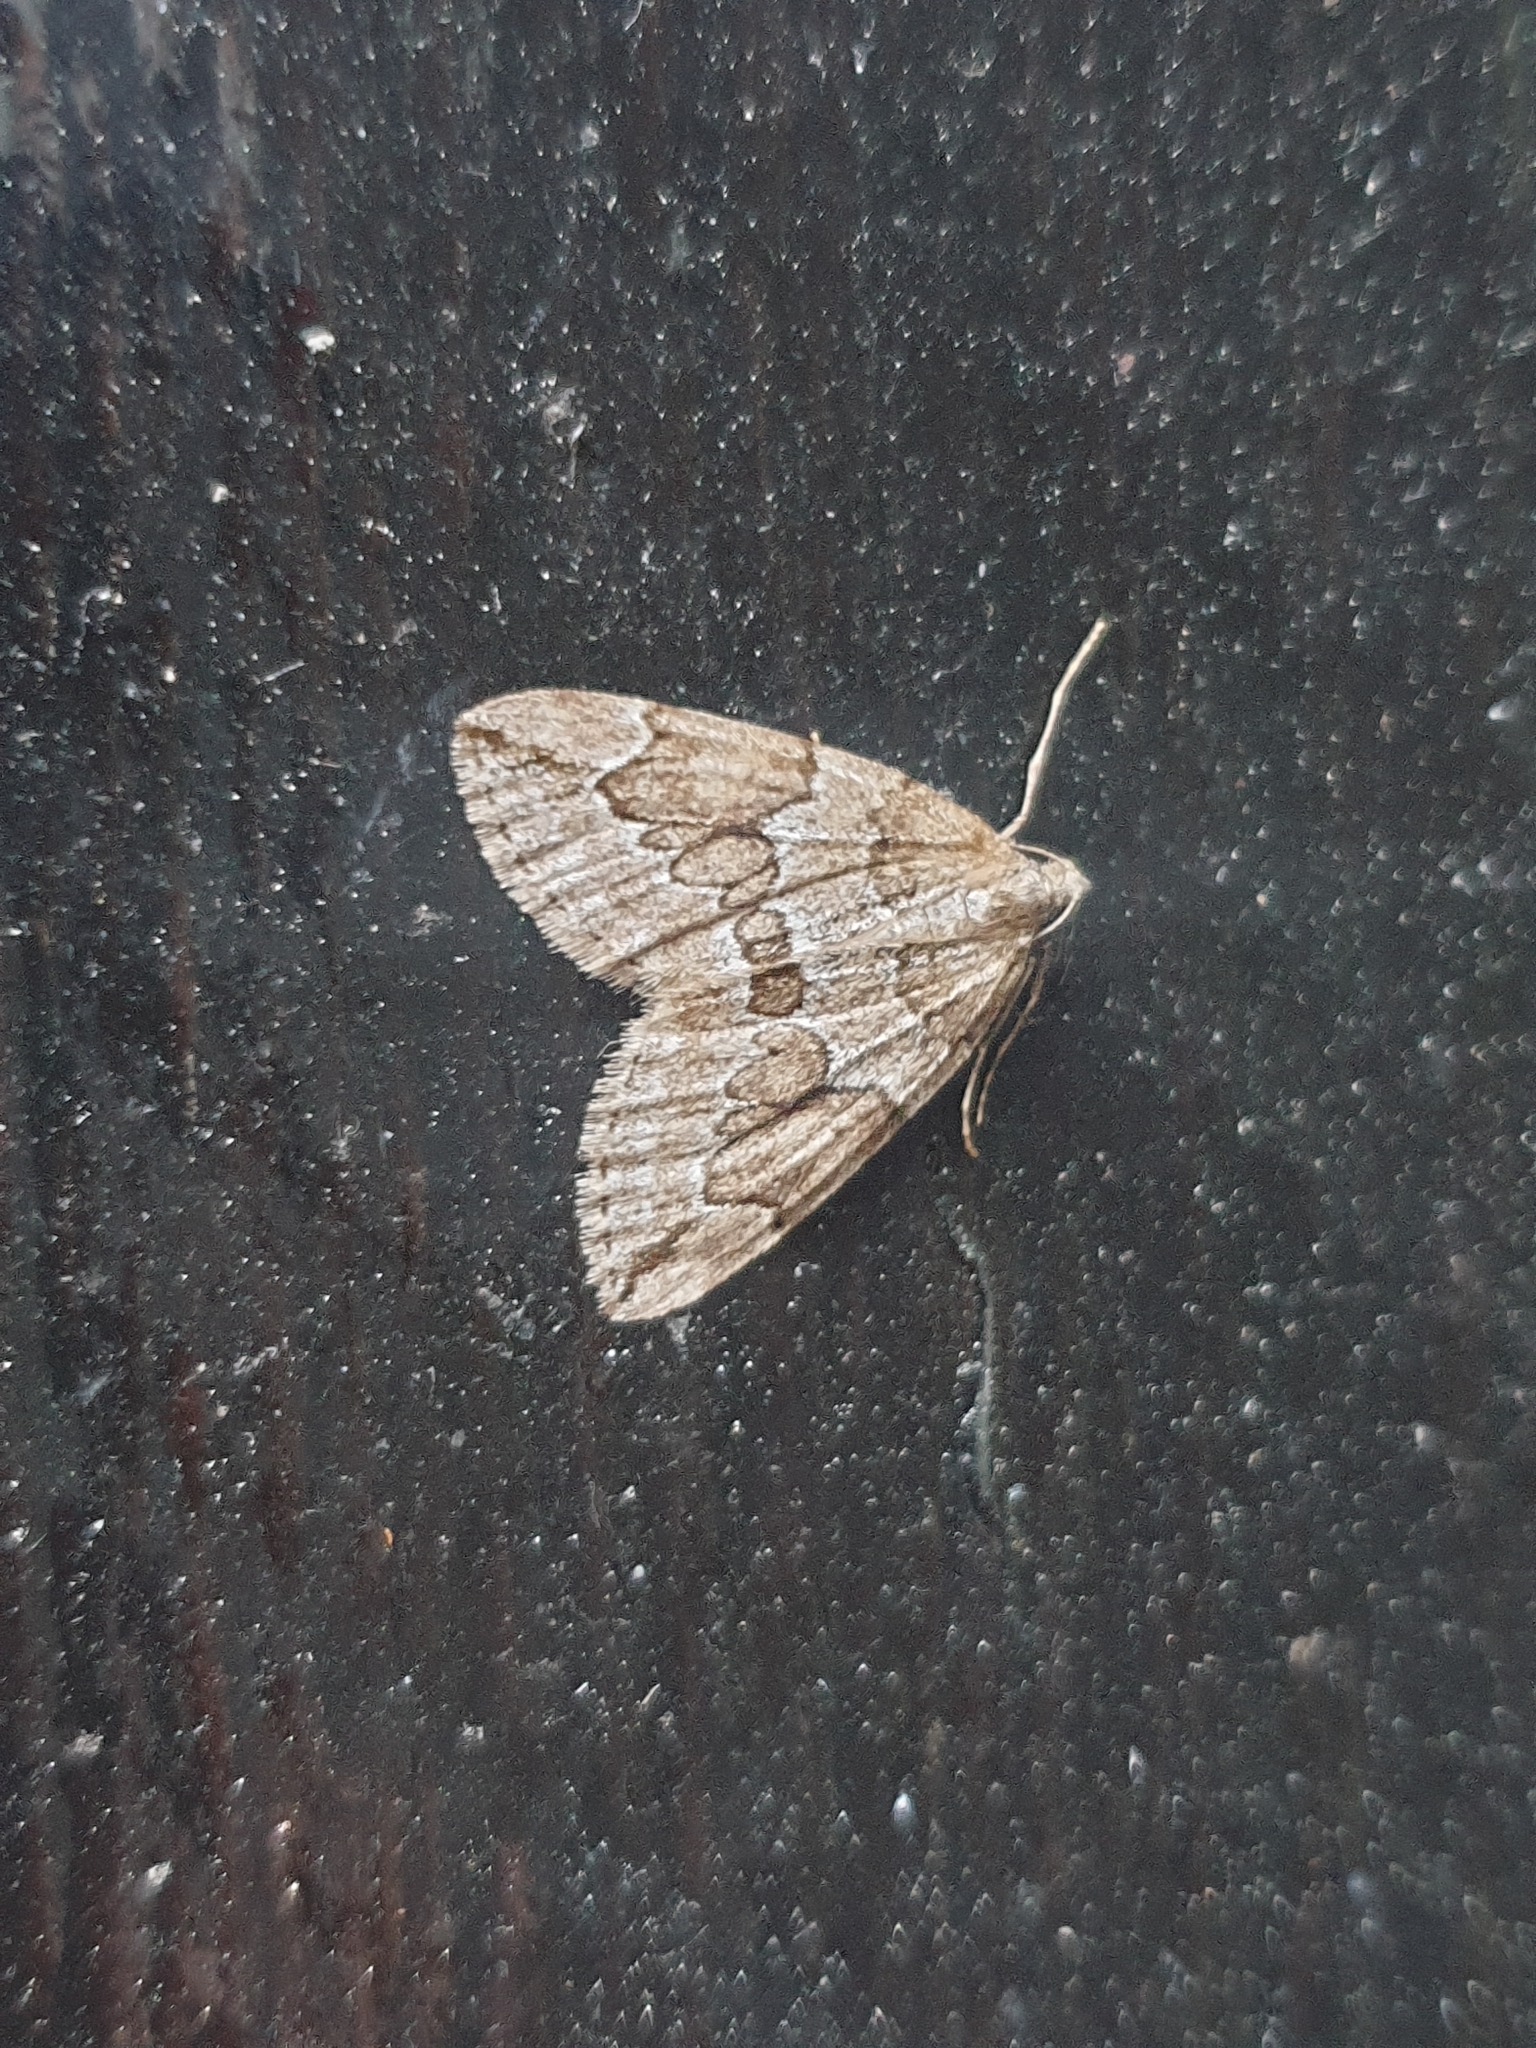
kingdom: Animalia
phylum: Arthropoda
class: Insecta
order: Lepidoptera
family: Geometridae
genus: Thera
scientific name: Thera juniperata
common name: Juniper carpet
